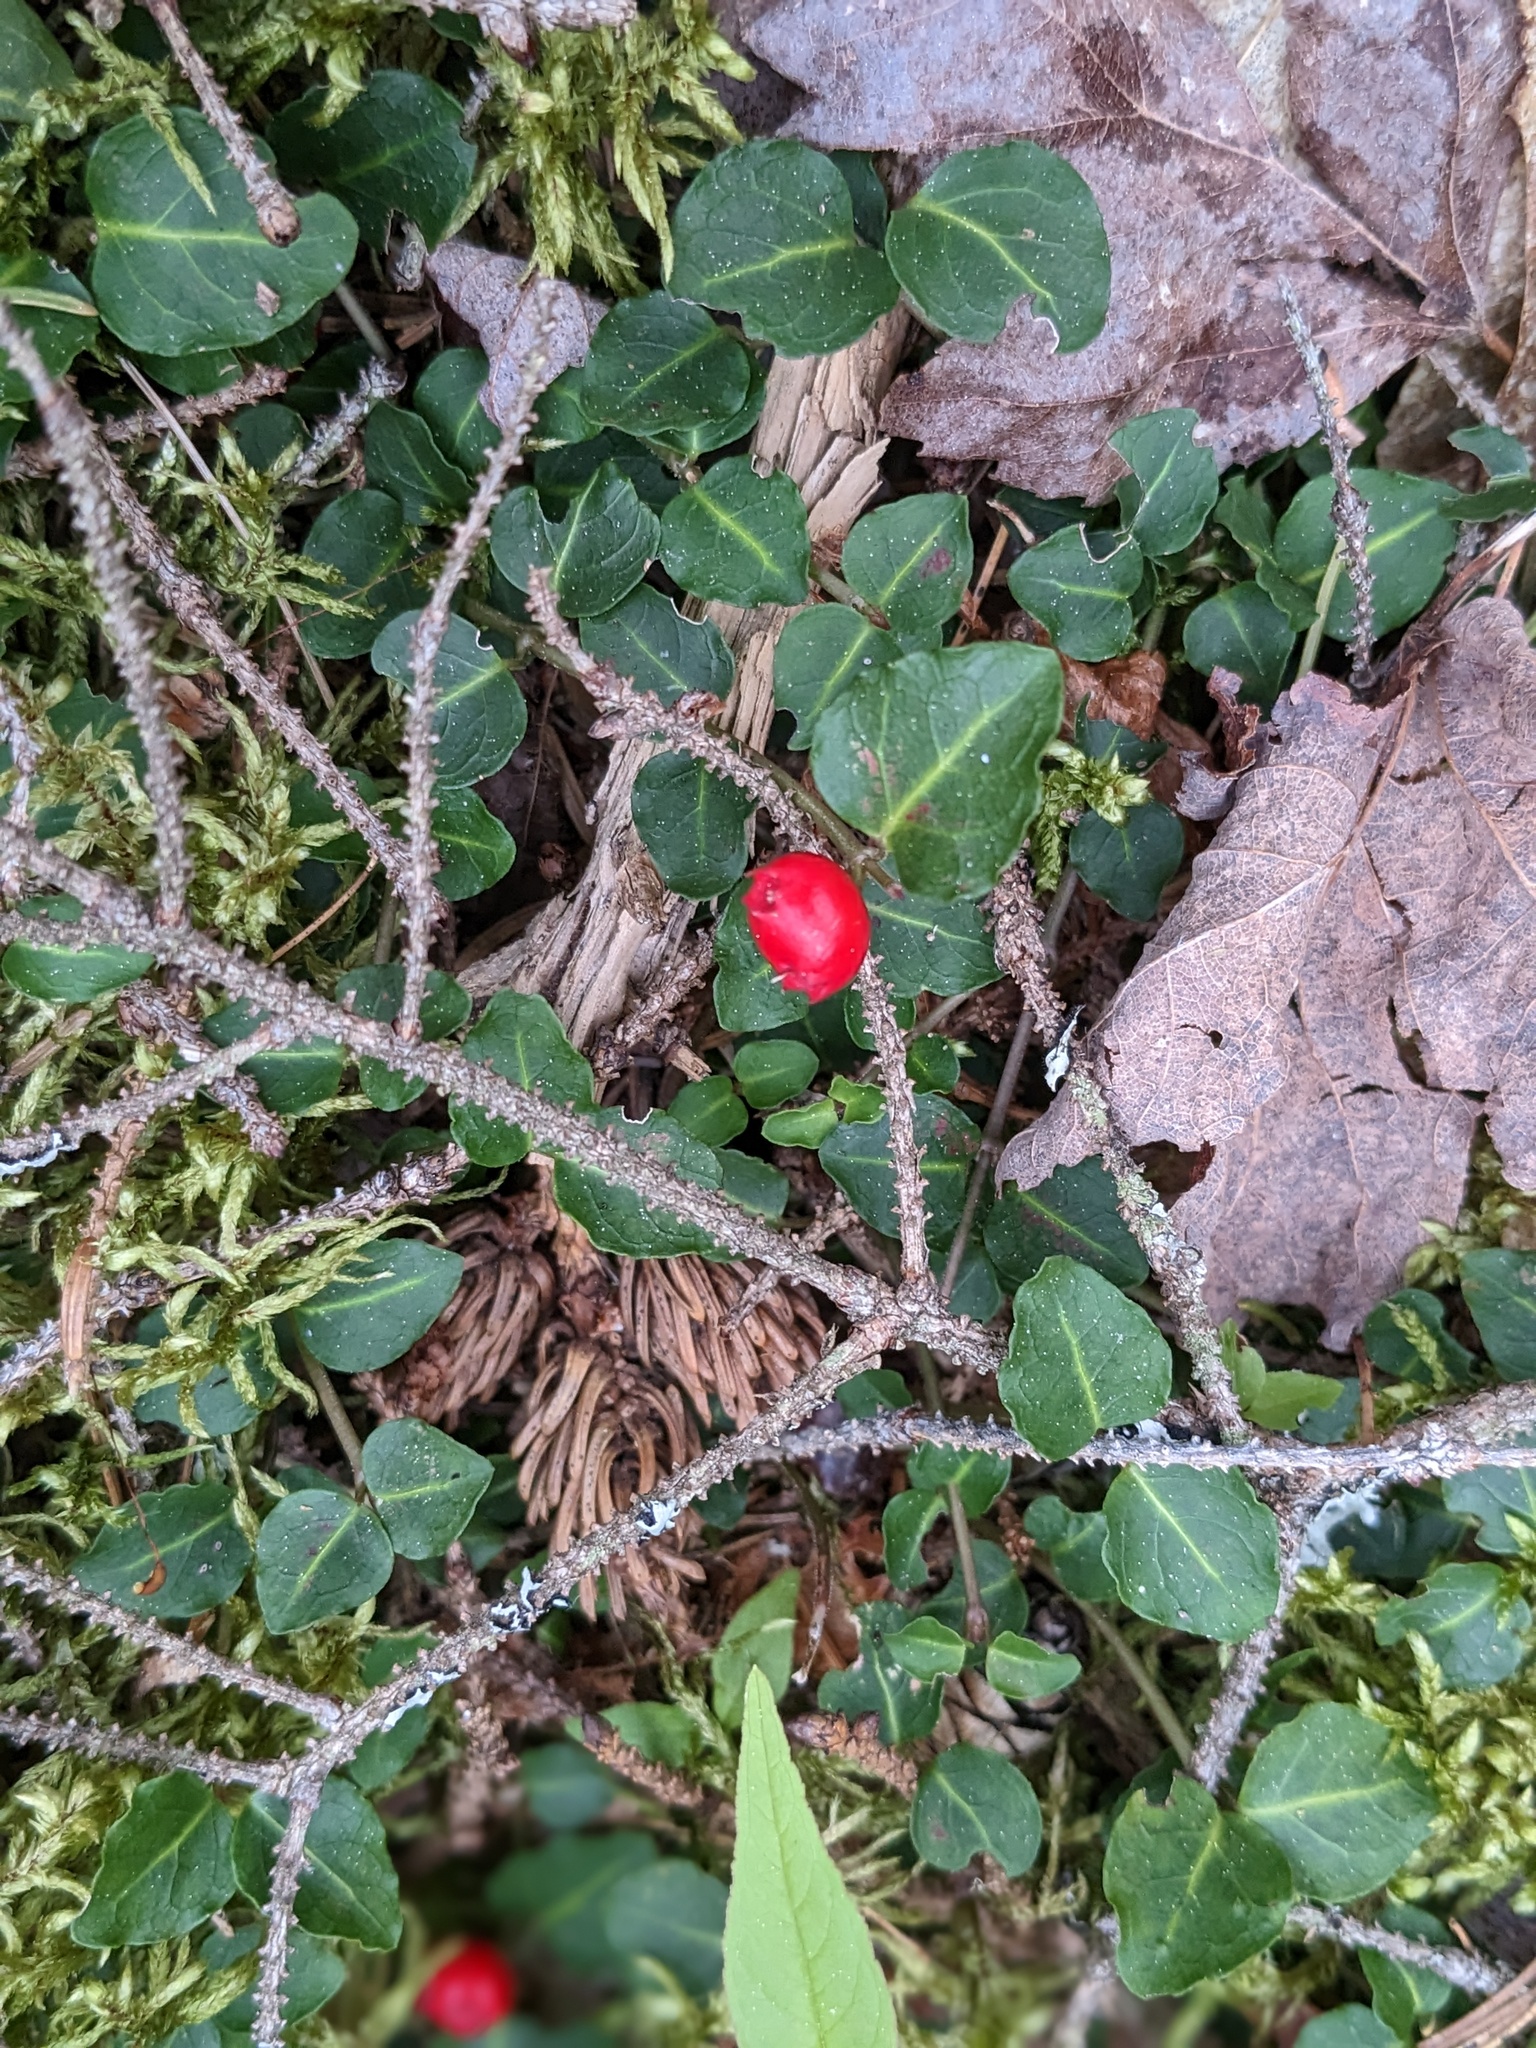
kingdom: Plantae
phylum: Tracheophyta
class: Magnoliopsida
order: Gentianales
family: Rubiaceae
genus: Mitchella
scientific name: Mitchella repens
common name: Partridge-berry
